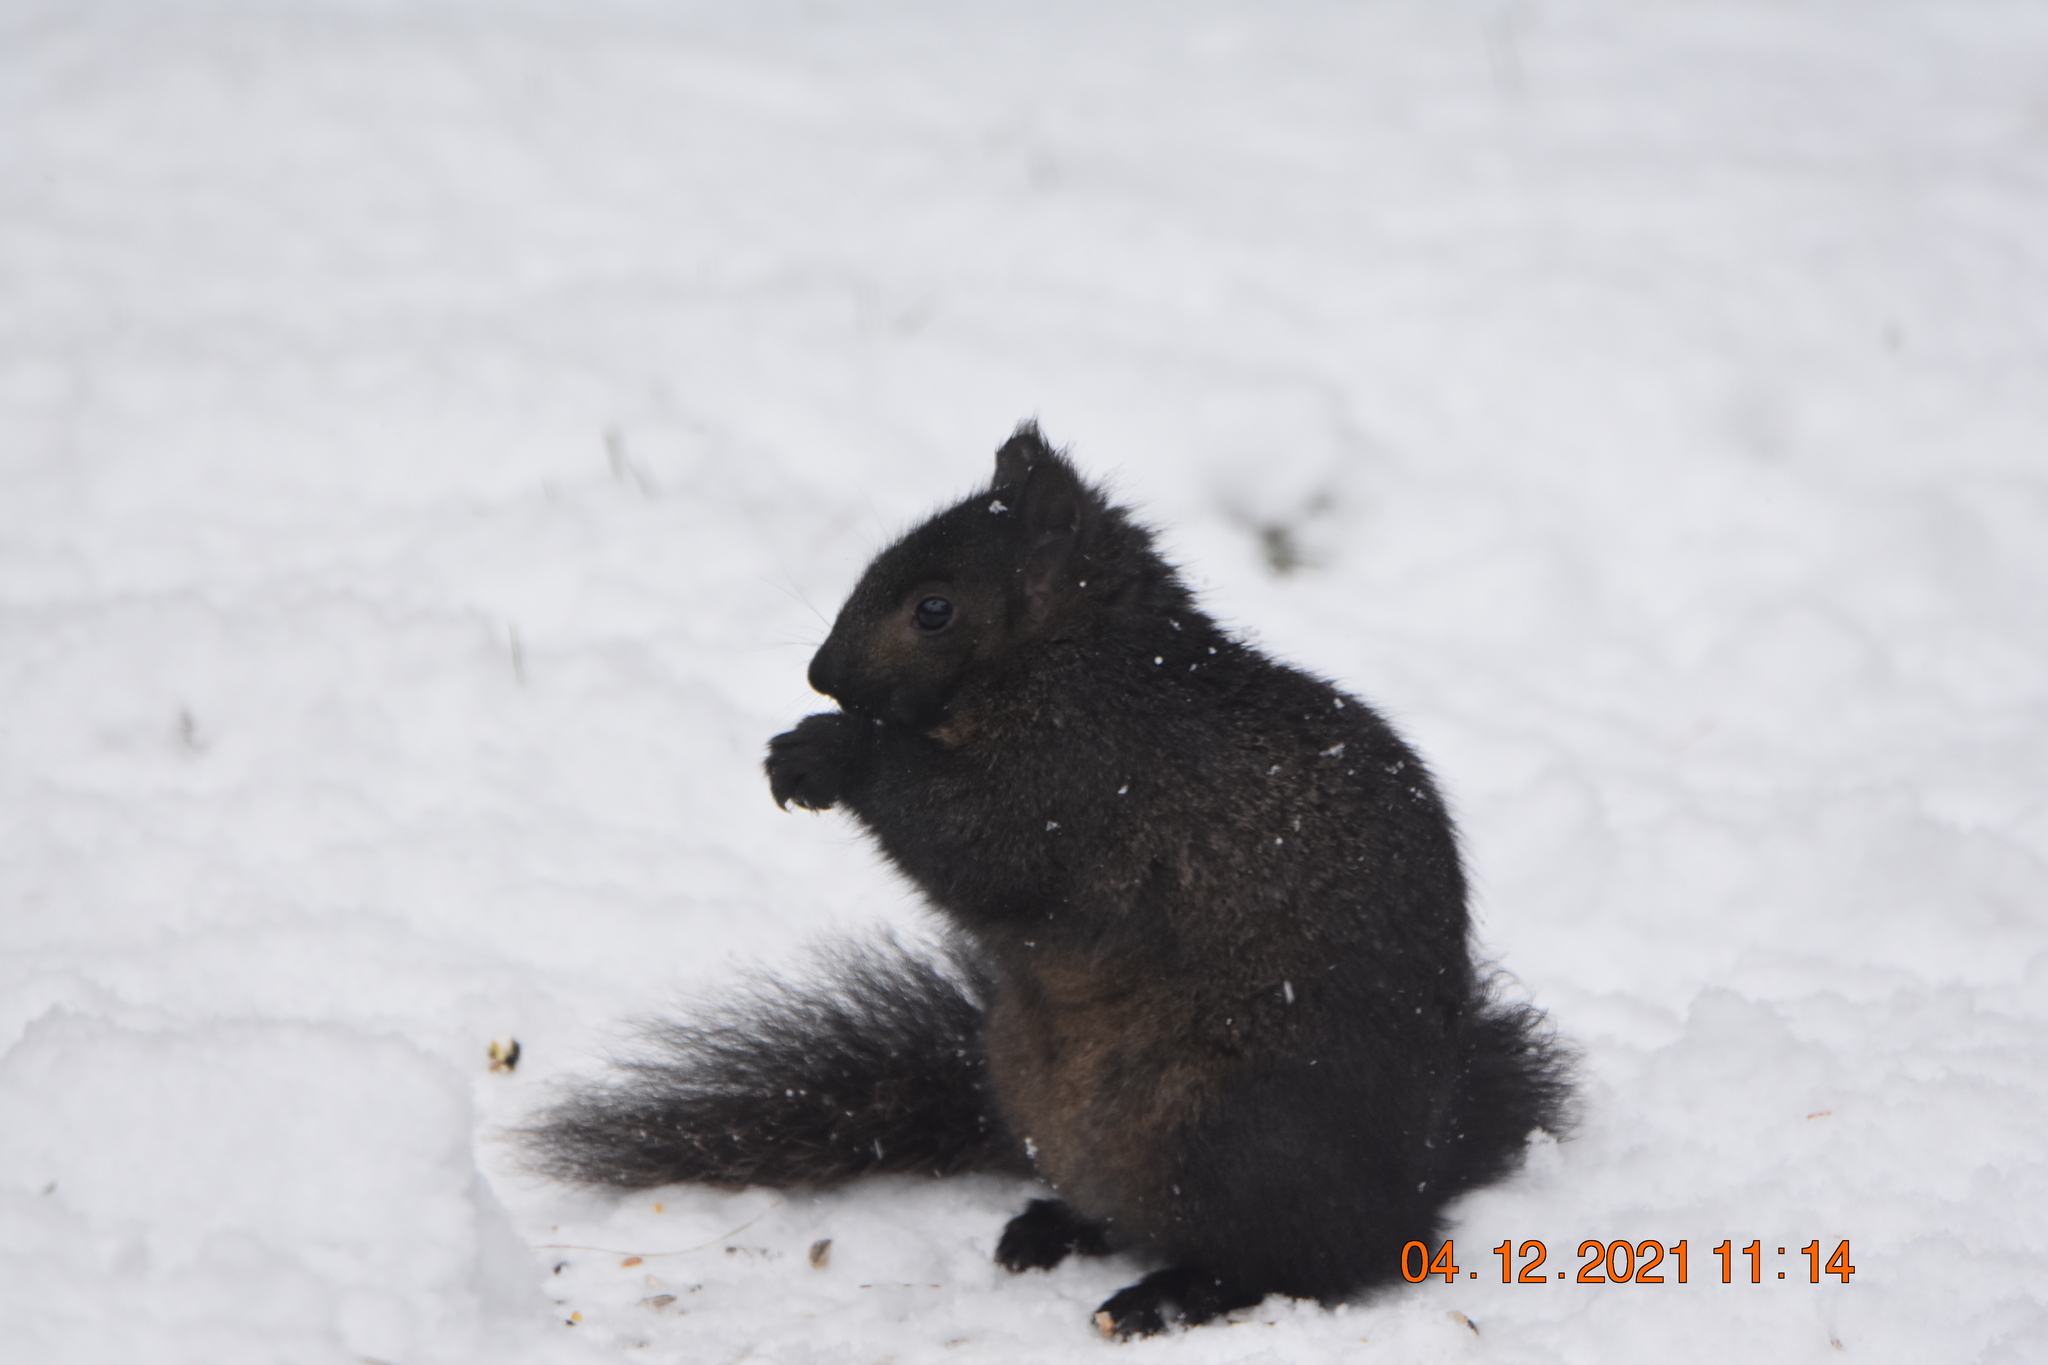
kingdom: Animalia
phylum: Chordata
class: Mammalia
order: Rodentia
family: Sciuridae
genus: Sciurus
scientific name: Sciurus carolinensis
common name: Eastern gray squirrel
